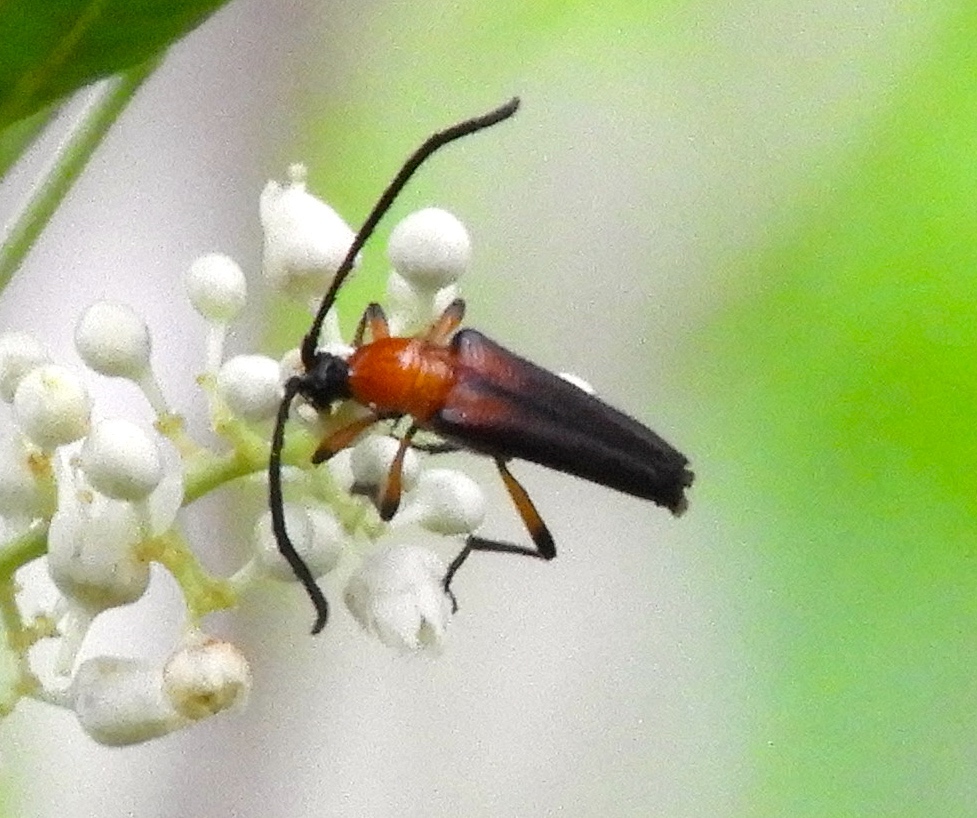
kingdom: Animalia
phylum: Arthropoda
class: Insecta
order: Coleoptera
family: Cerambycidae
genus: Cyphonotida
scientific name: Cyphonotida rostrata
